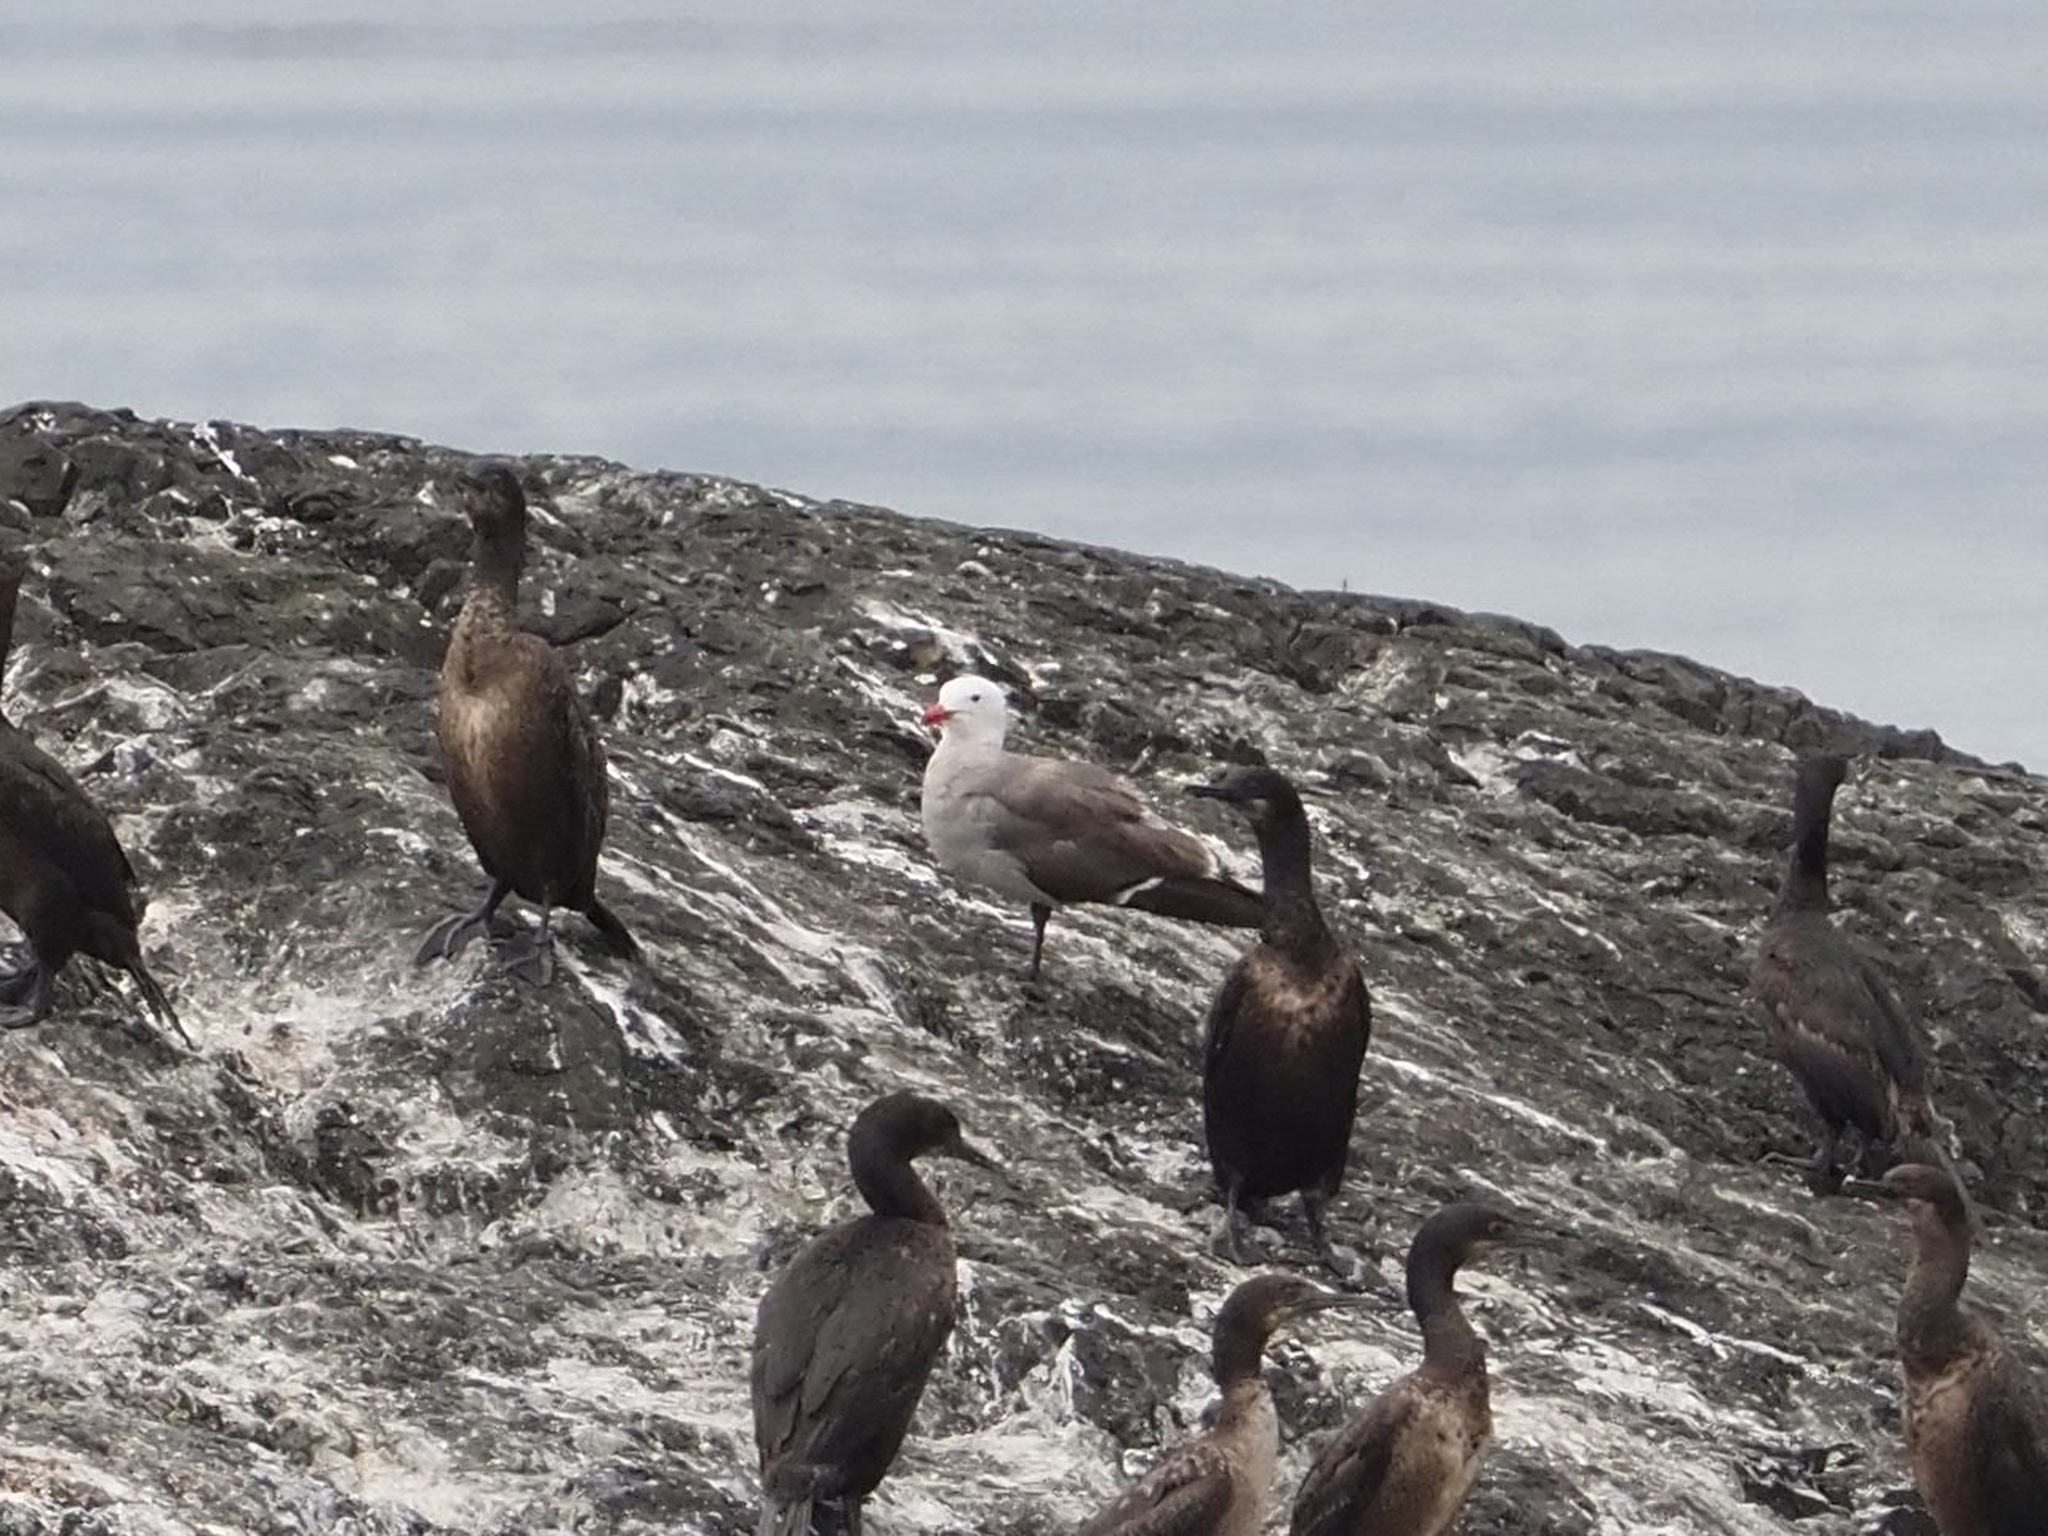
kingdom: Animalia
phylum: Chordata
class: Aves
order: Charadriiformes
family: Laridae
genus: Larus
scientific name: Larus heermanni
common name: Heermann's gull
